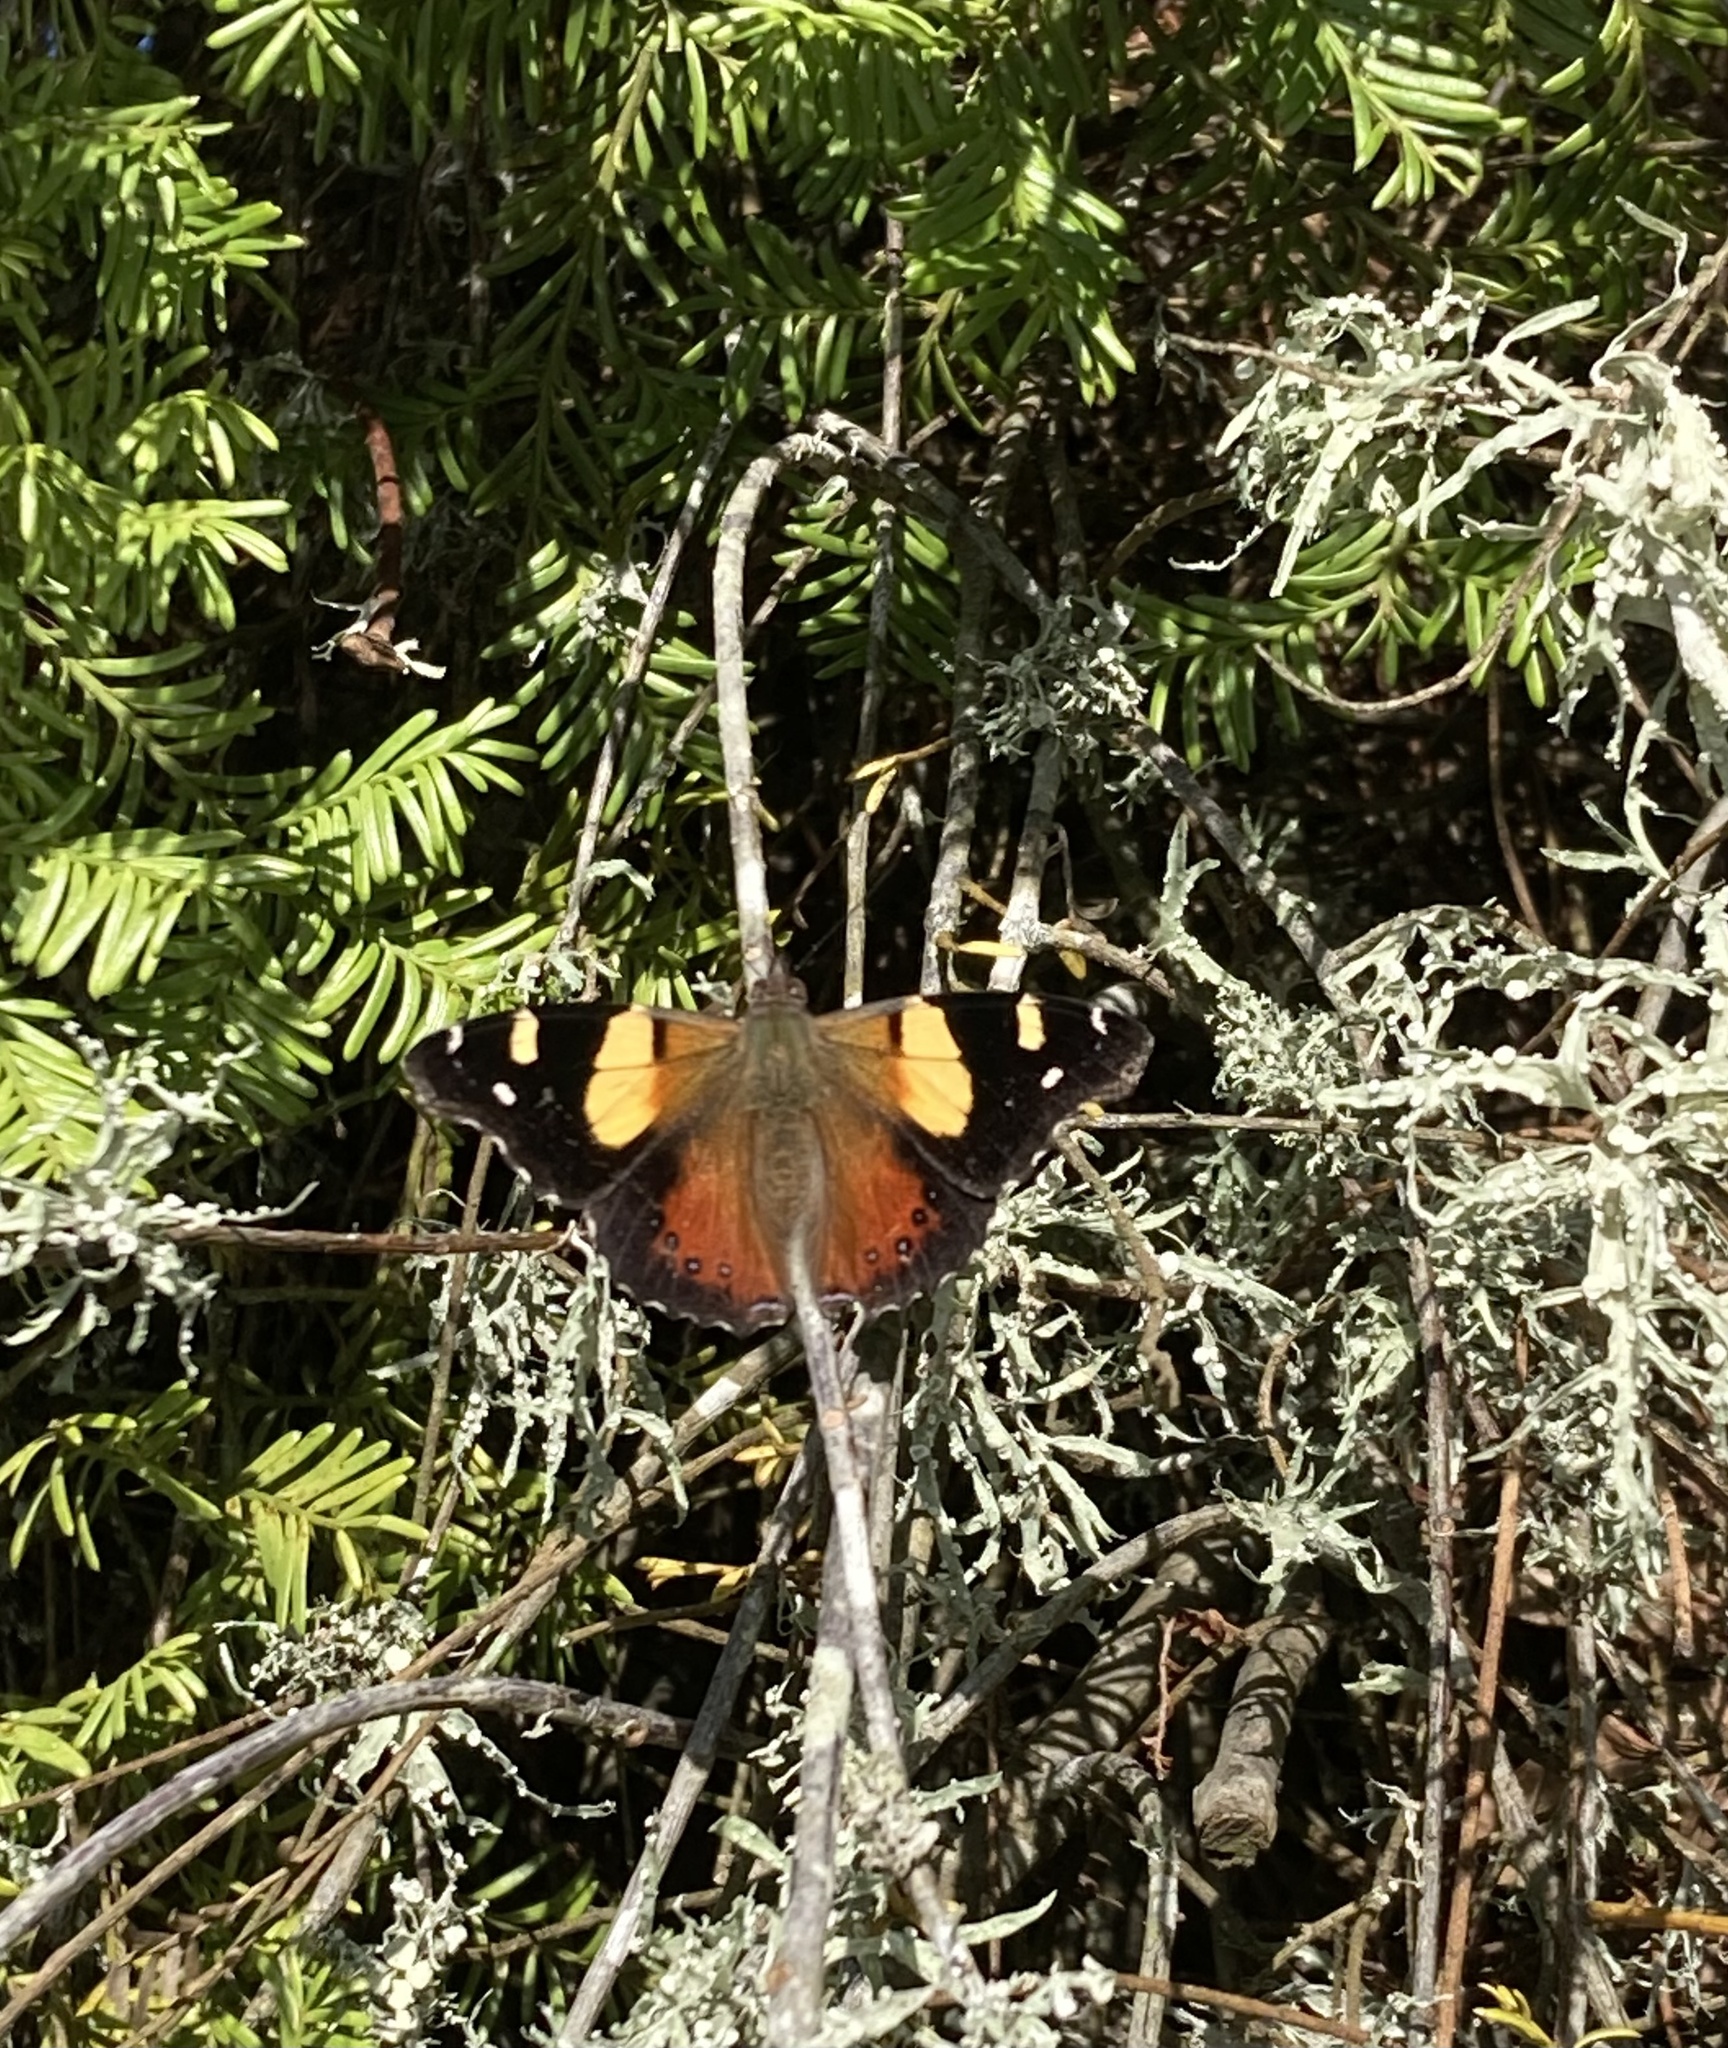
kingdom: Animalia
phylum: Arthropoda
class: Insecta
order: Lepidoptera
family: Nymphalidae
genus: Vanessa
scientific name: Vanessa itea
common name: Yellow admiral
